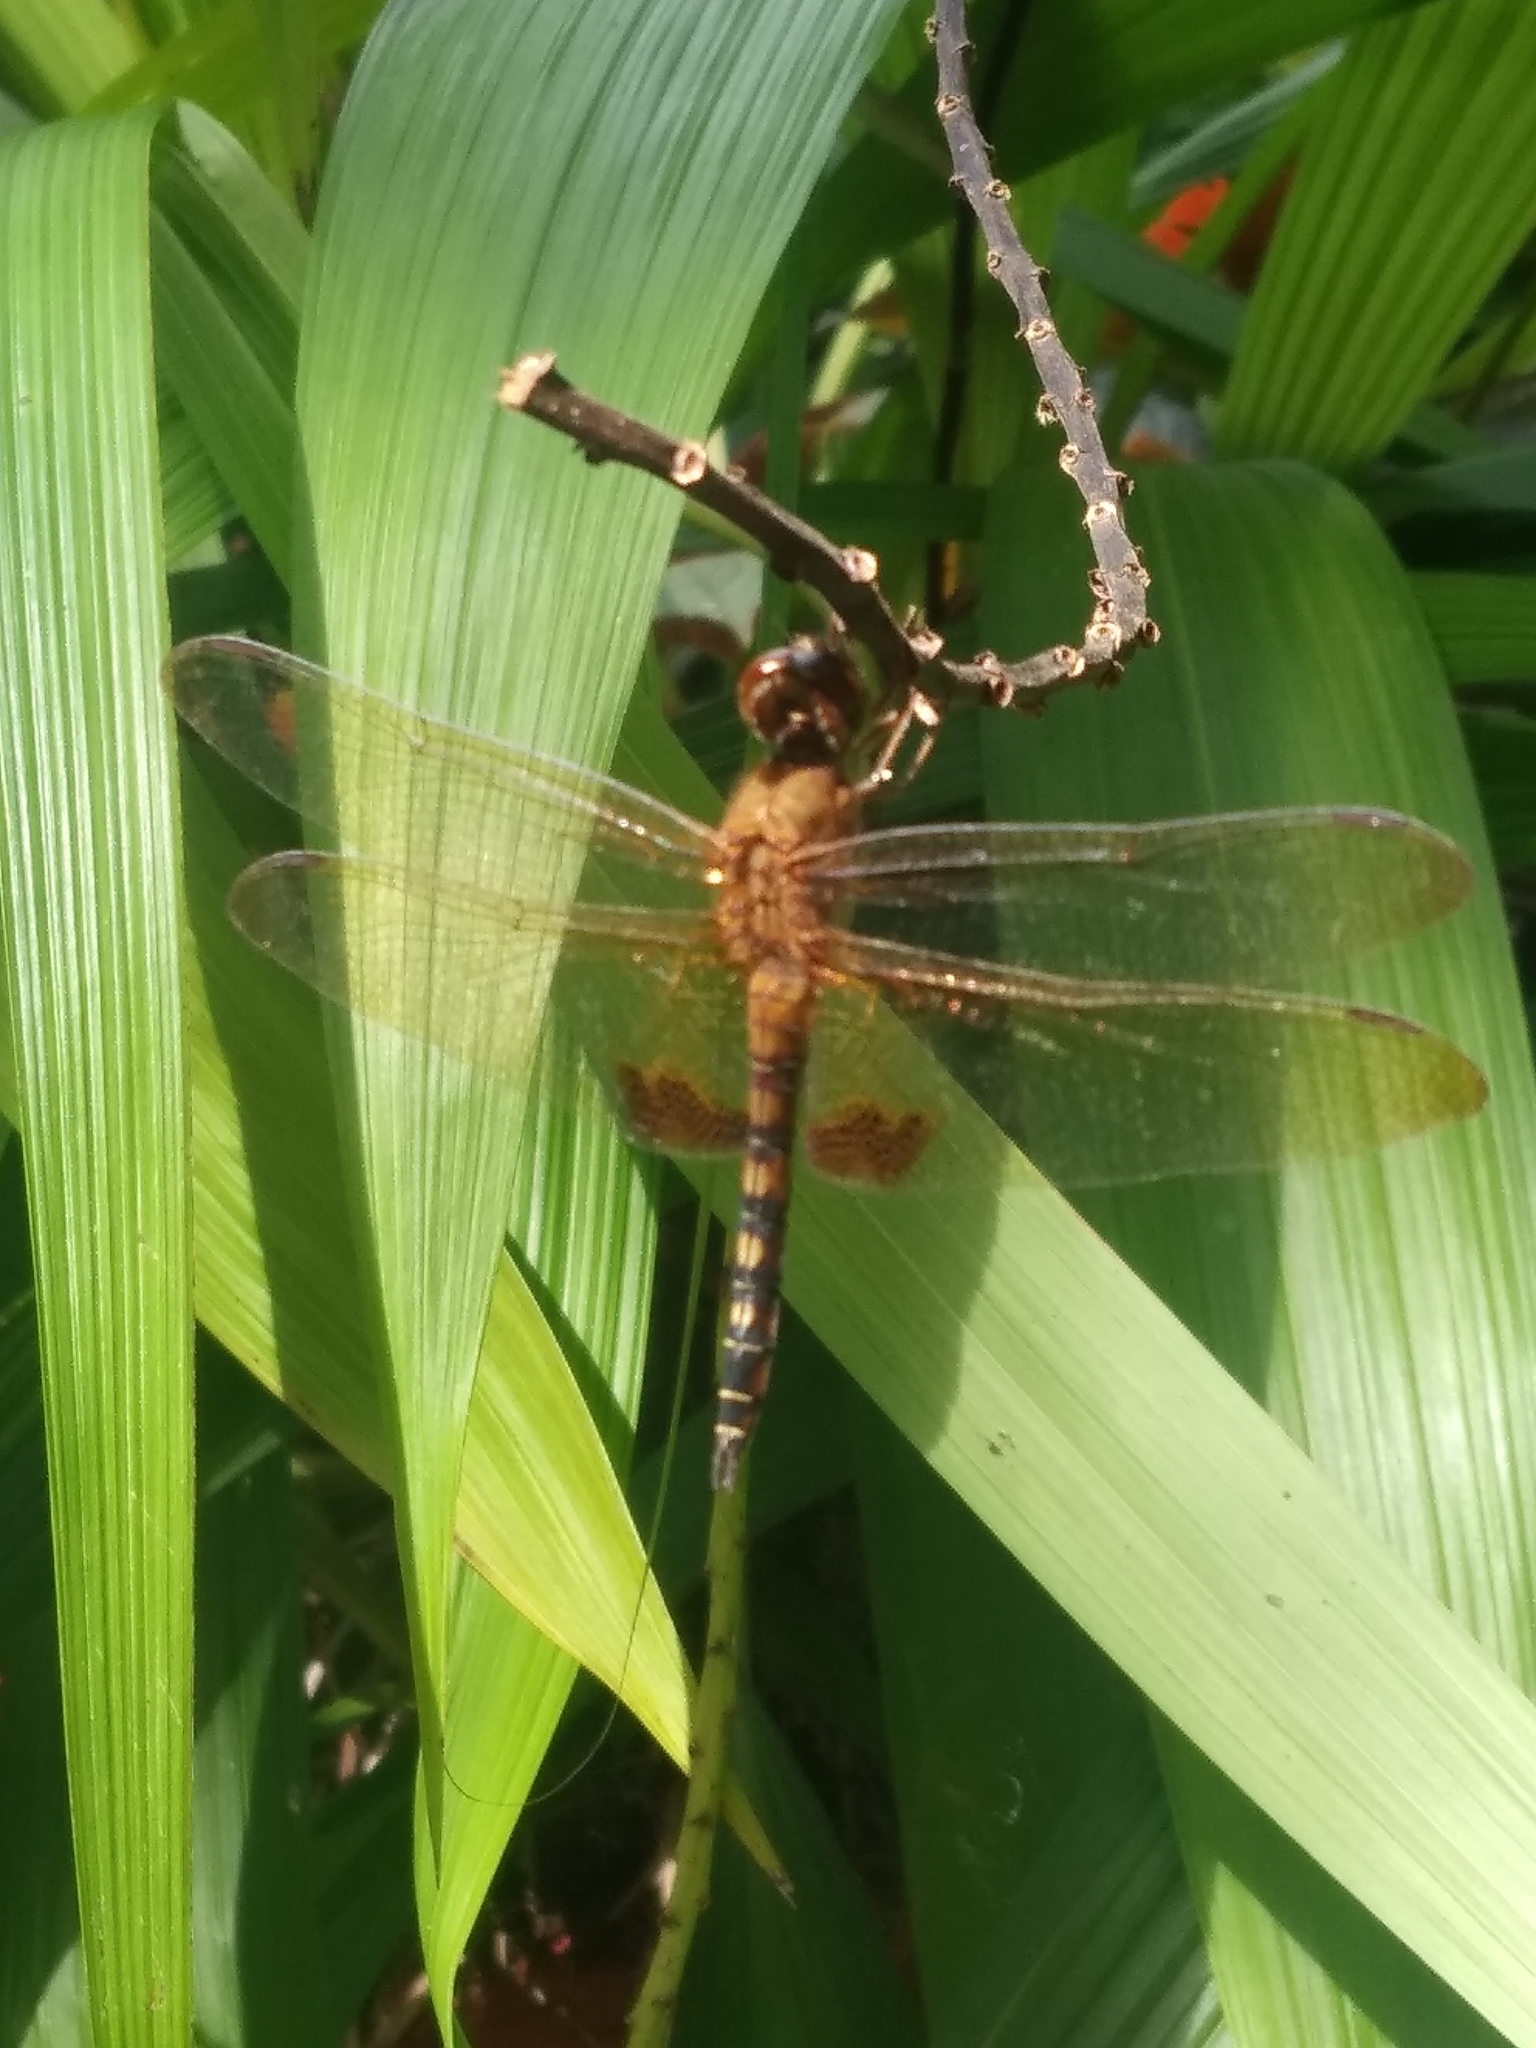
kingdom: Animalia
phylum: Arthropoda
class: Insecta
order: Odonata
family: Libellulidae
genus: Hydrobasileus
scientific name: Hydrobasileus croceus
